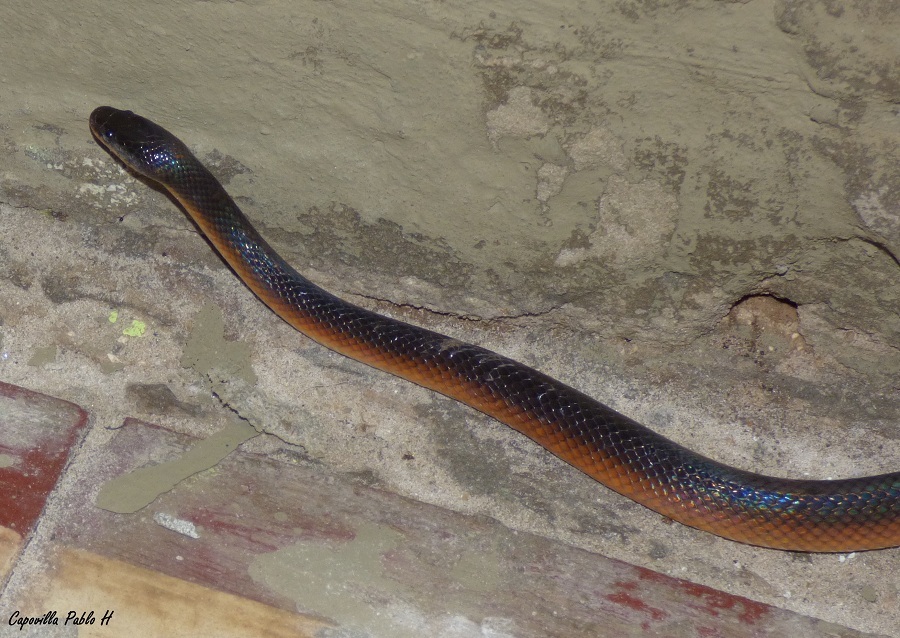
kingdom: Animalia
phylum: Chordata
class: Squamata
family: Colubridae
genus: Mussurana
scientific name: Mussurana bicolor
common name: Two-colored mussurana
